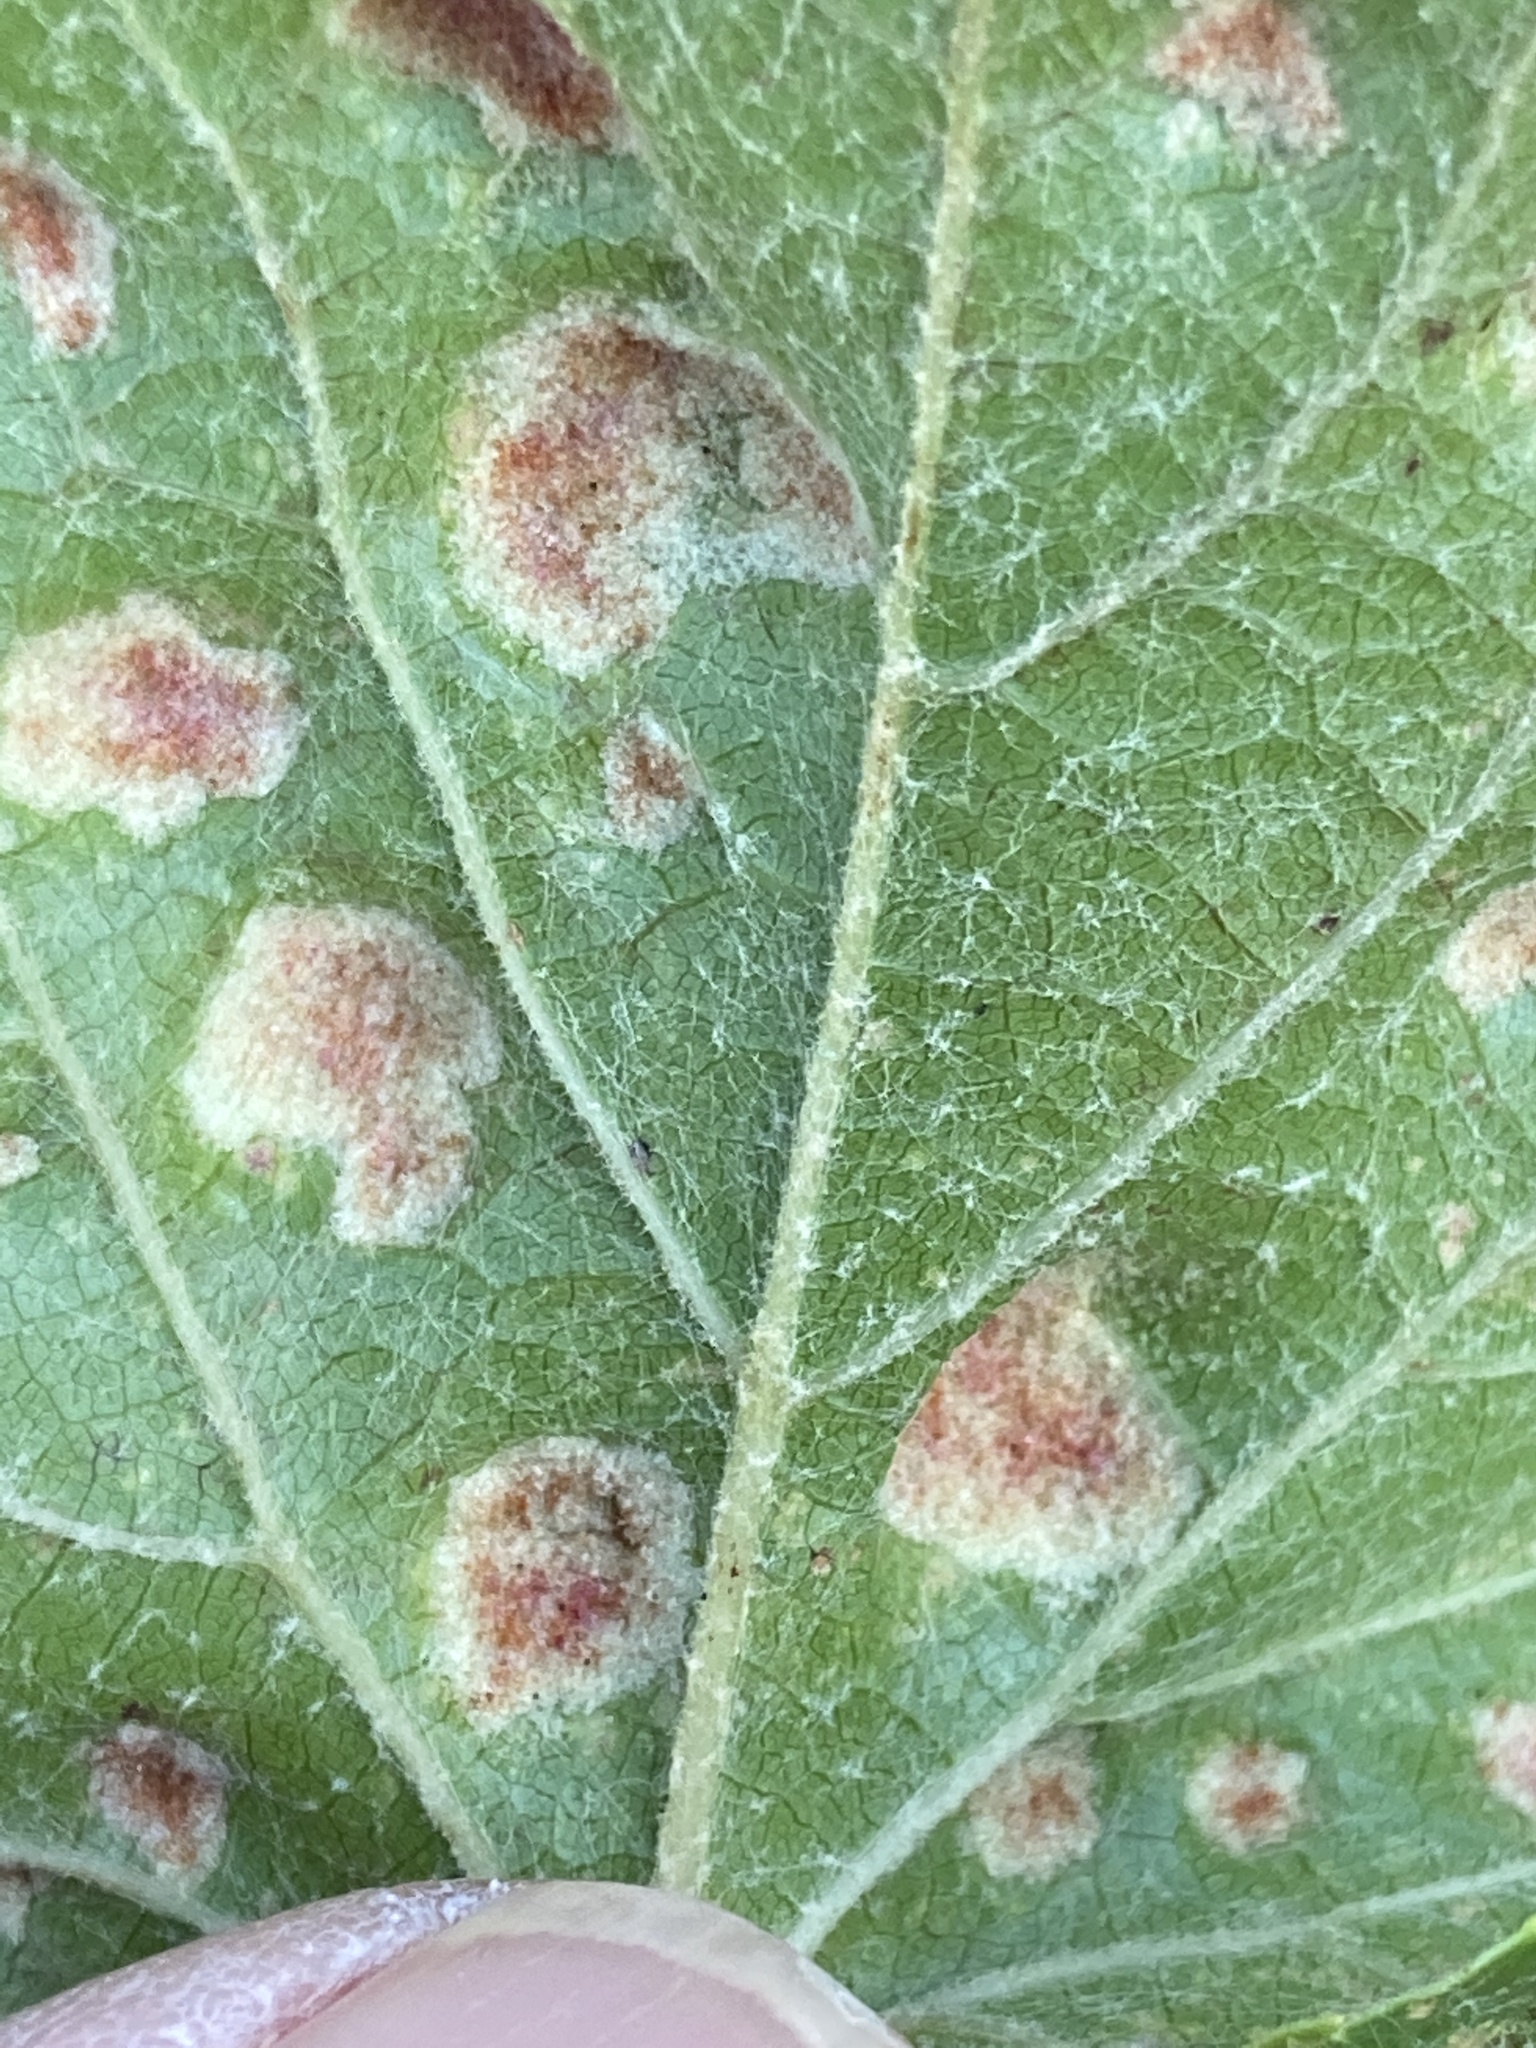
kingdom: Animalia
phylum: Arthropoda
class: Arachnida
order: Trombidiformes
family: Eriophyidae
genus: Colomerus
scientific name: Colomerus vitis
